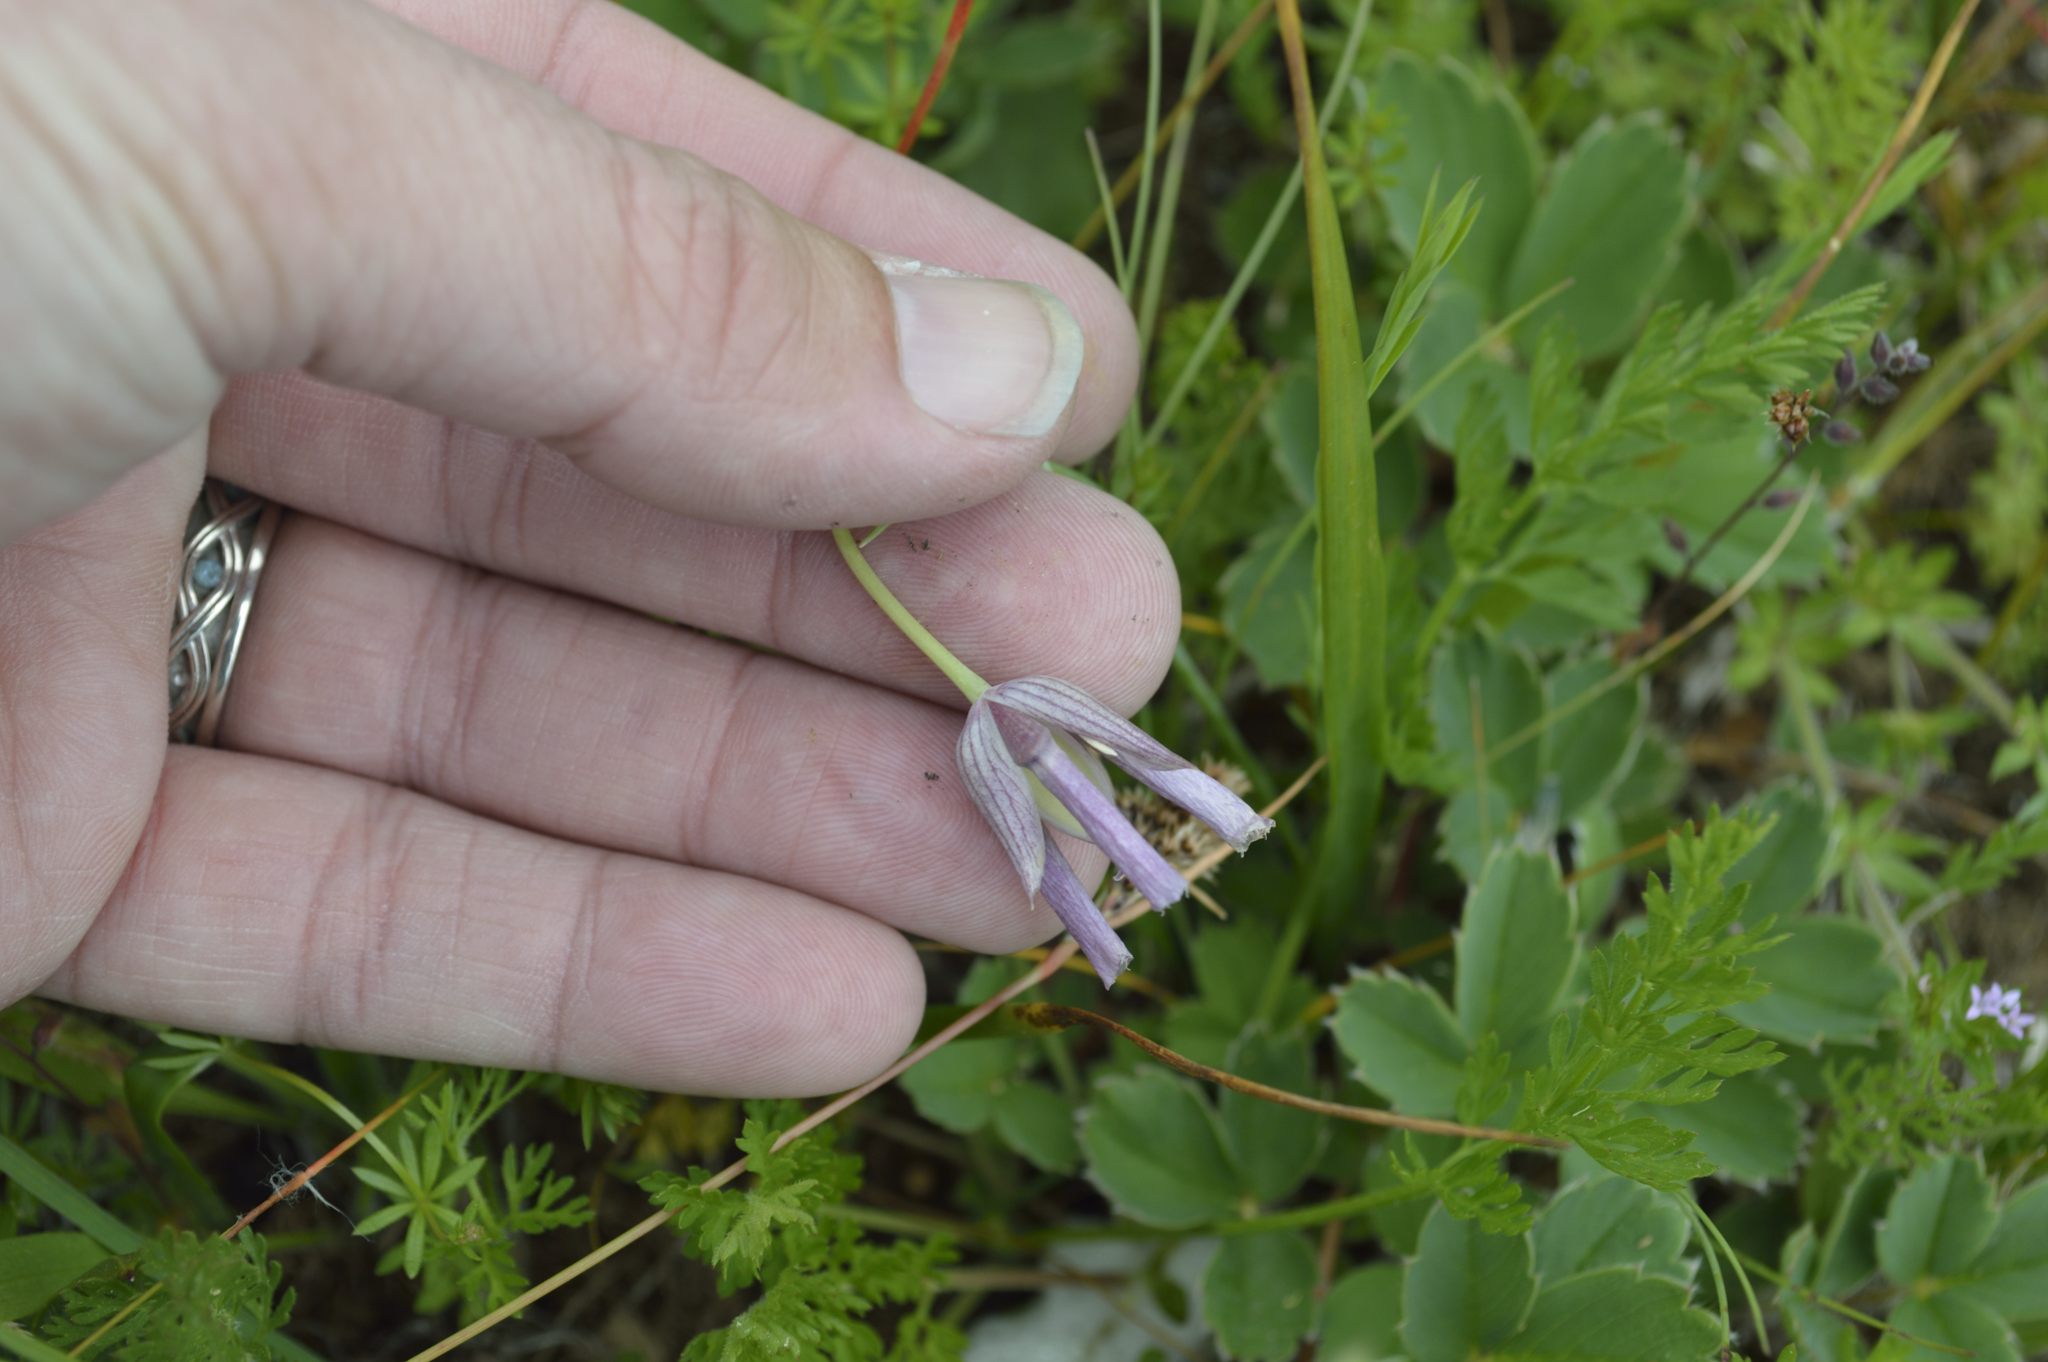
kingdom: Plantae
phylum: Tracheophyta
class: Liliopsida
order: Liliales
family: Liliaceae
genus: Calochortus
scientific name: Calochortus tolmiei
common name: Pussy-ears
